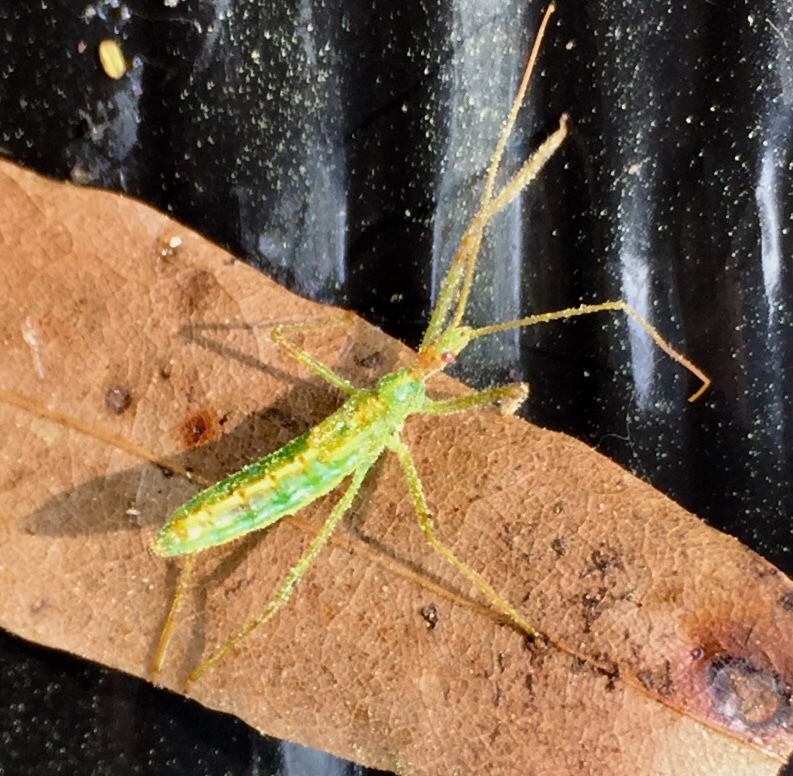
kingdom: Animalia
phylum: Arthropoda
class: Insecta
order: Hemiptera
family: Reduviidae
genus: Zelus
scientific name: Zelus luridus
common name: Pale green assassin bug
